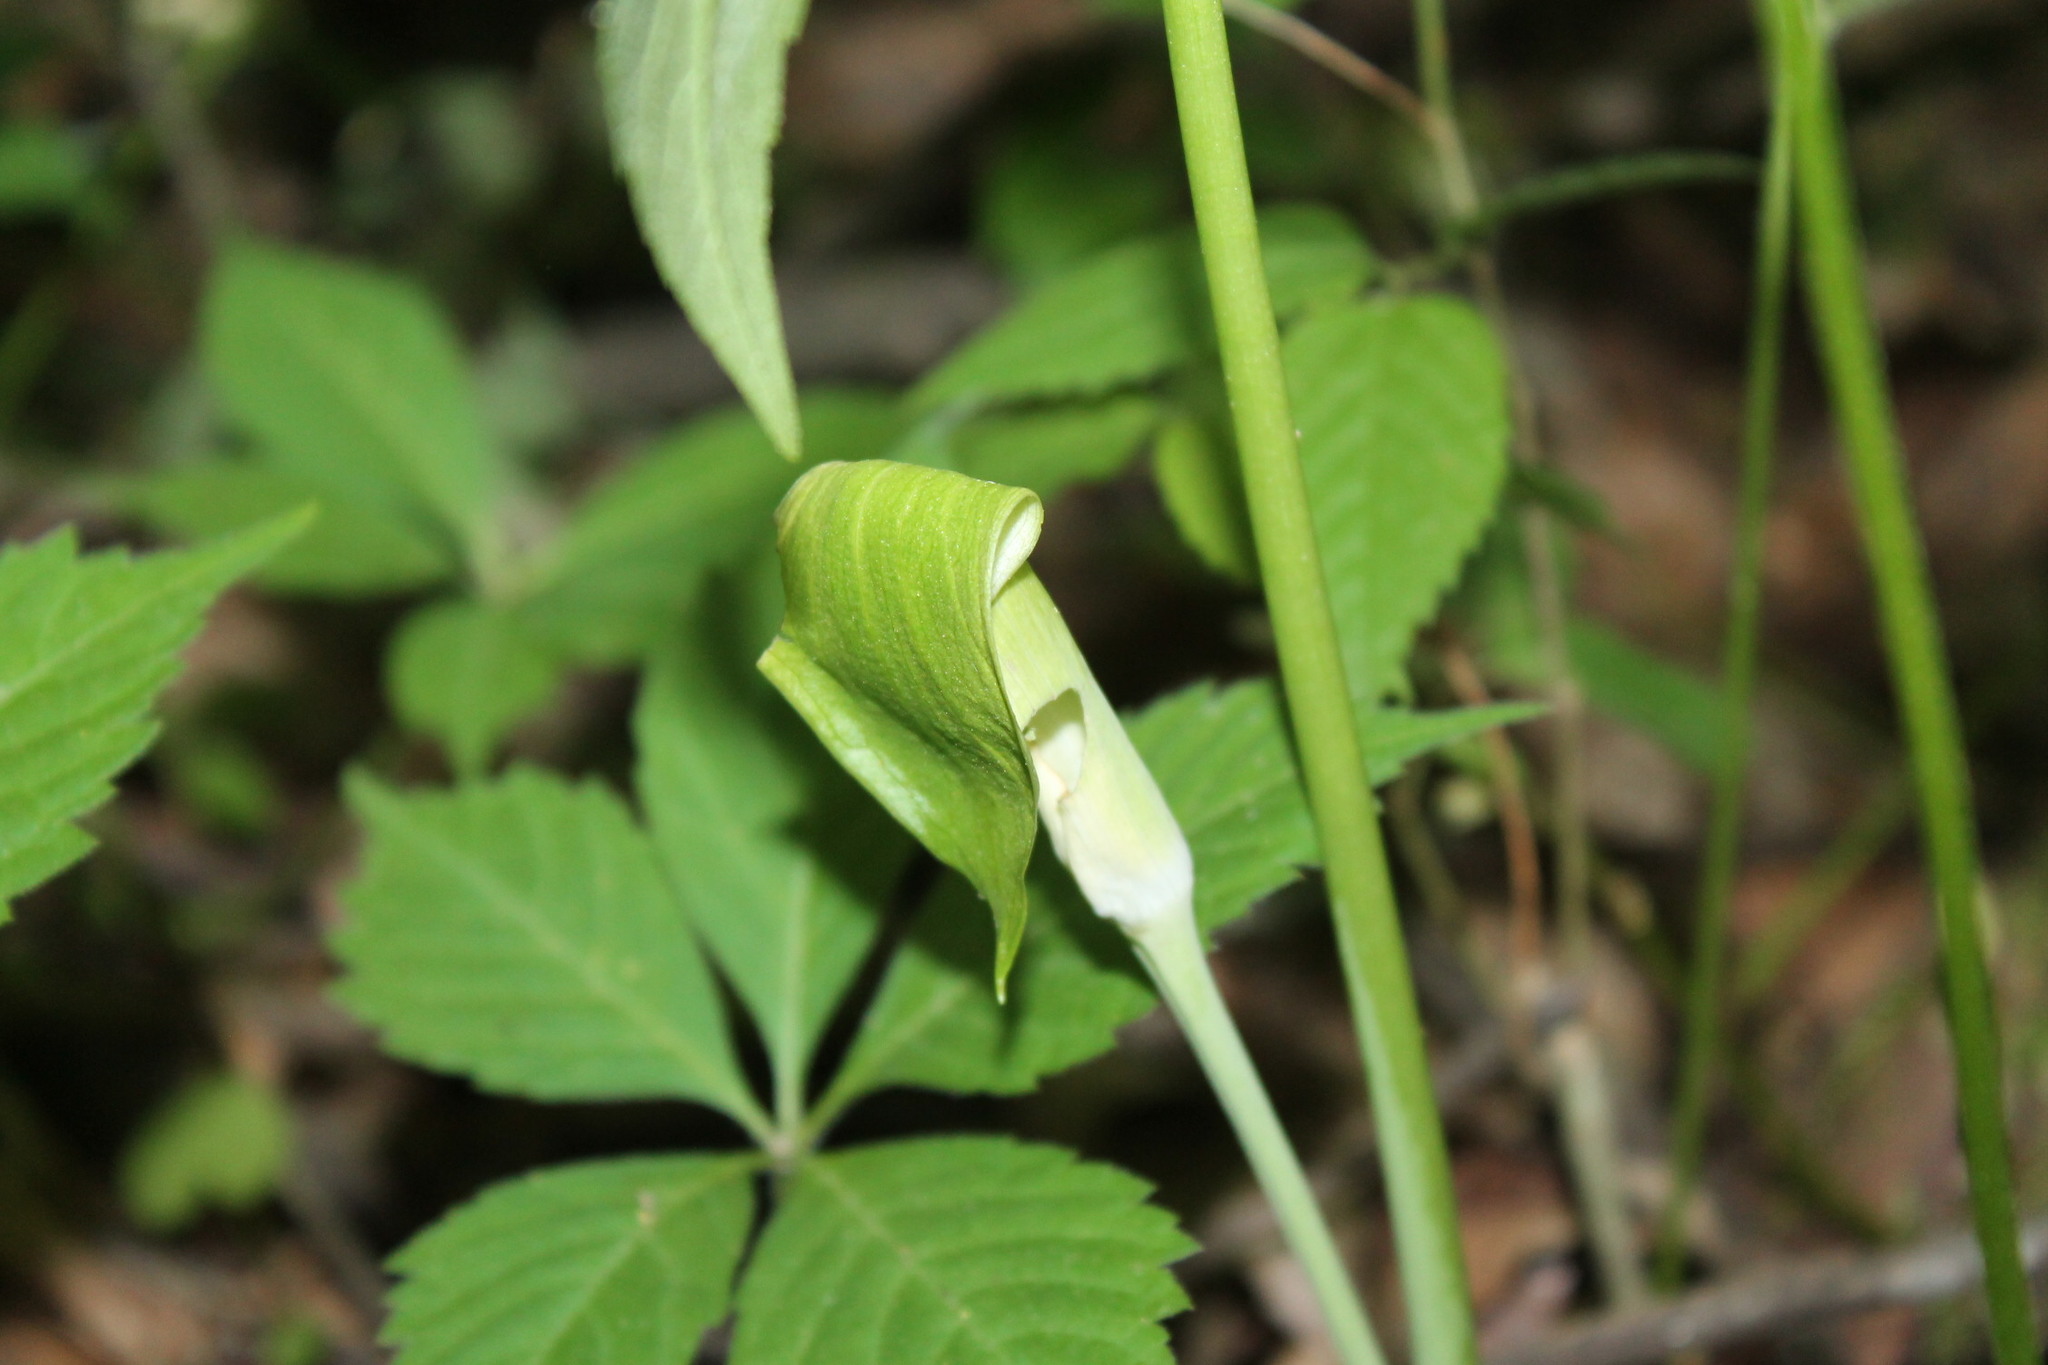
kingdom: Plantae
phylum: Tracheophyta
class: Liliopsida
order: Alismatales
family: Araceae
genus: Arisaema
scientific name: Arisaema triphyllum
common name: Jack-in-the-pulpit
